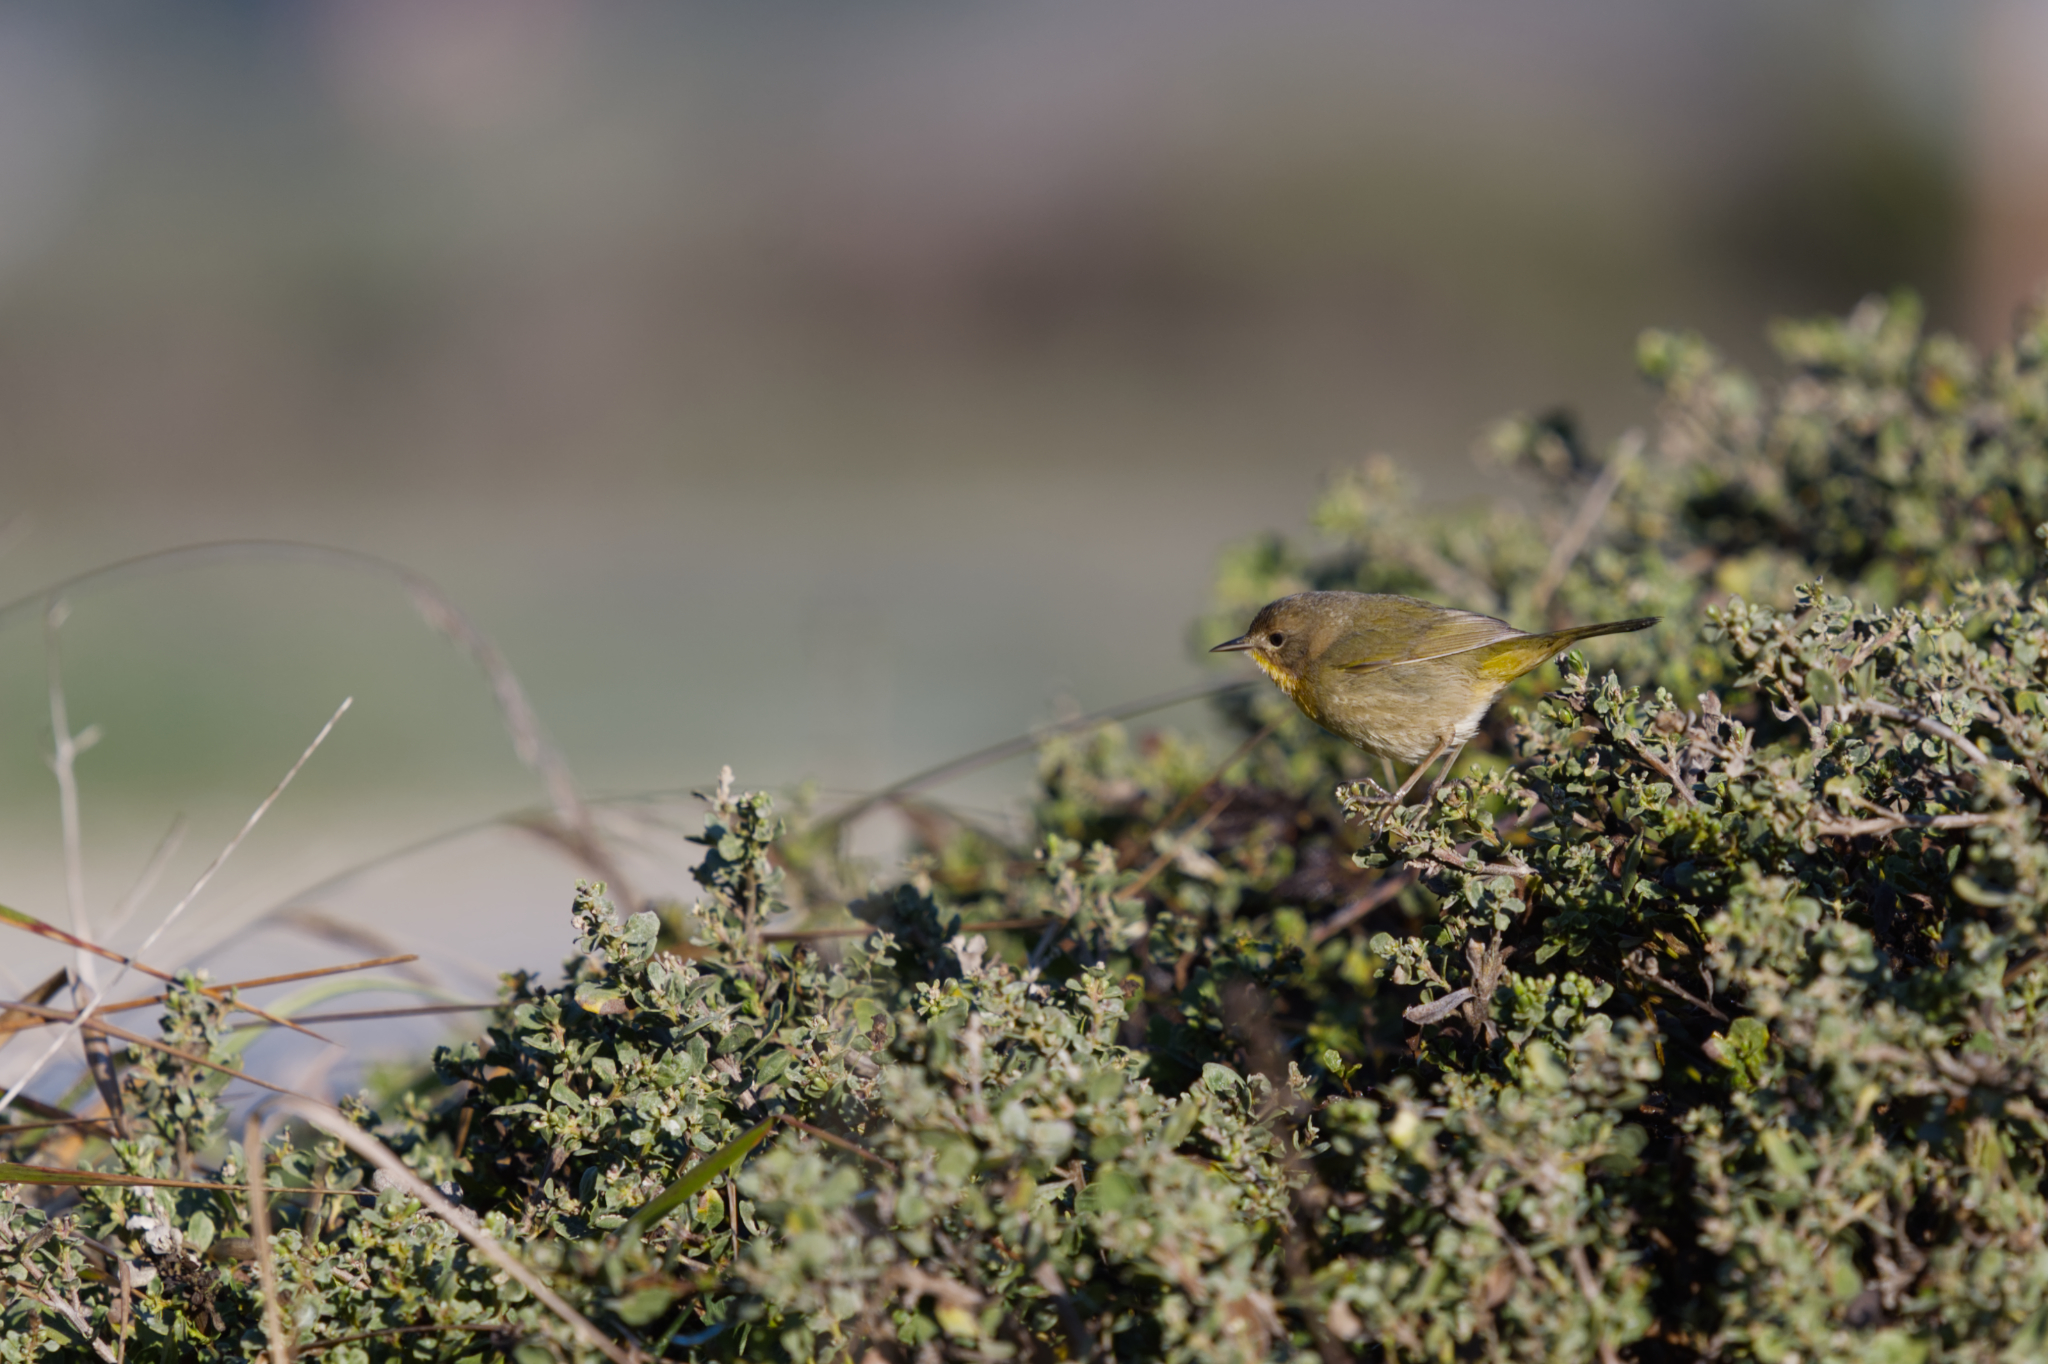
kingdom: Animalia
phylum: Chordata
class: Aves
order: Passeriformes
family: Parulidae
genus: Geothlypis
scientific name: Geothlypis trichas
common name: Common yellowthroat
